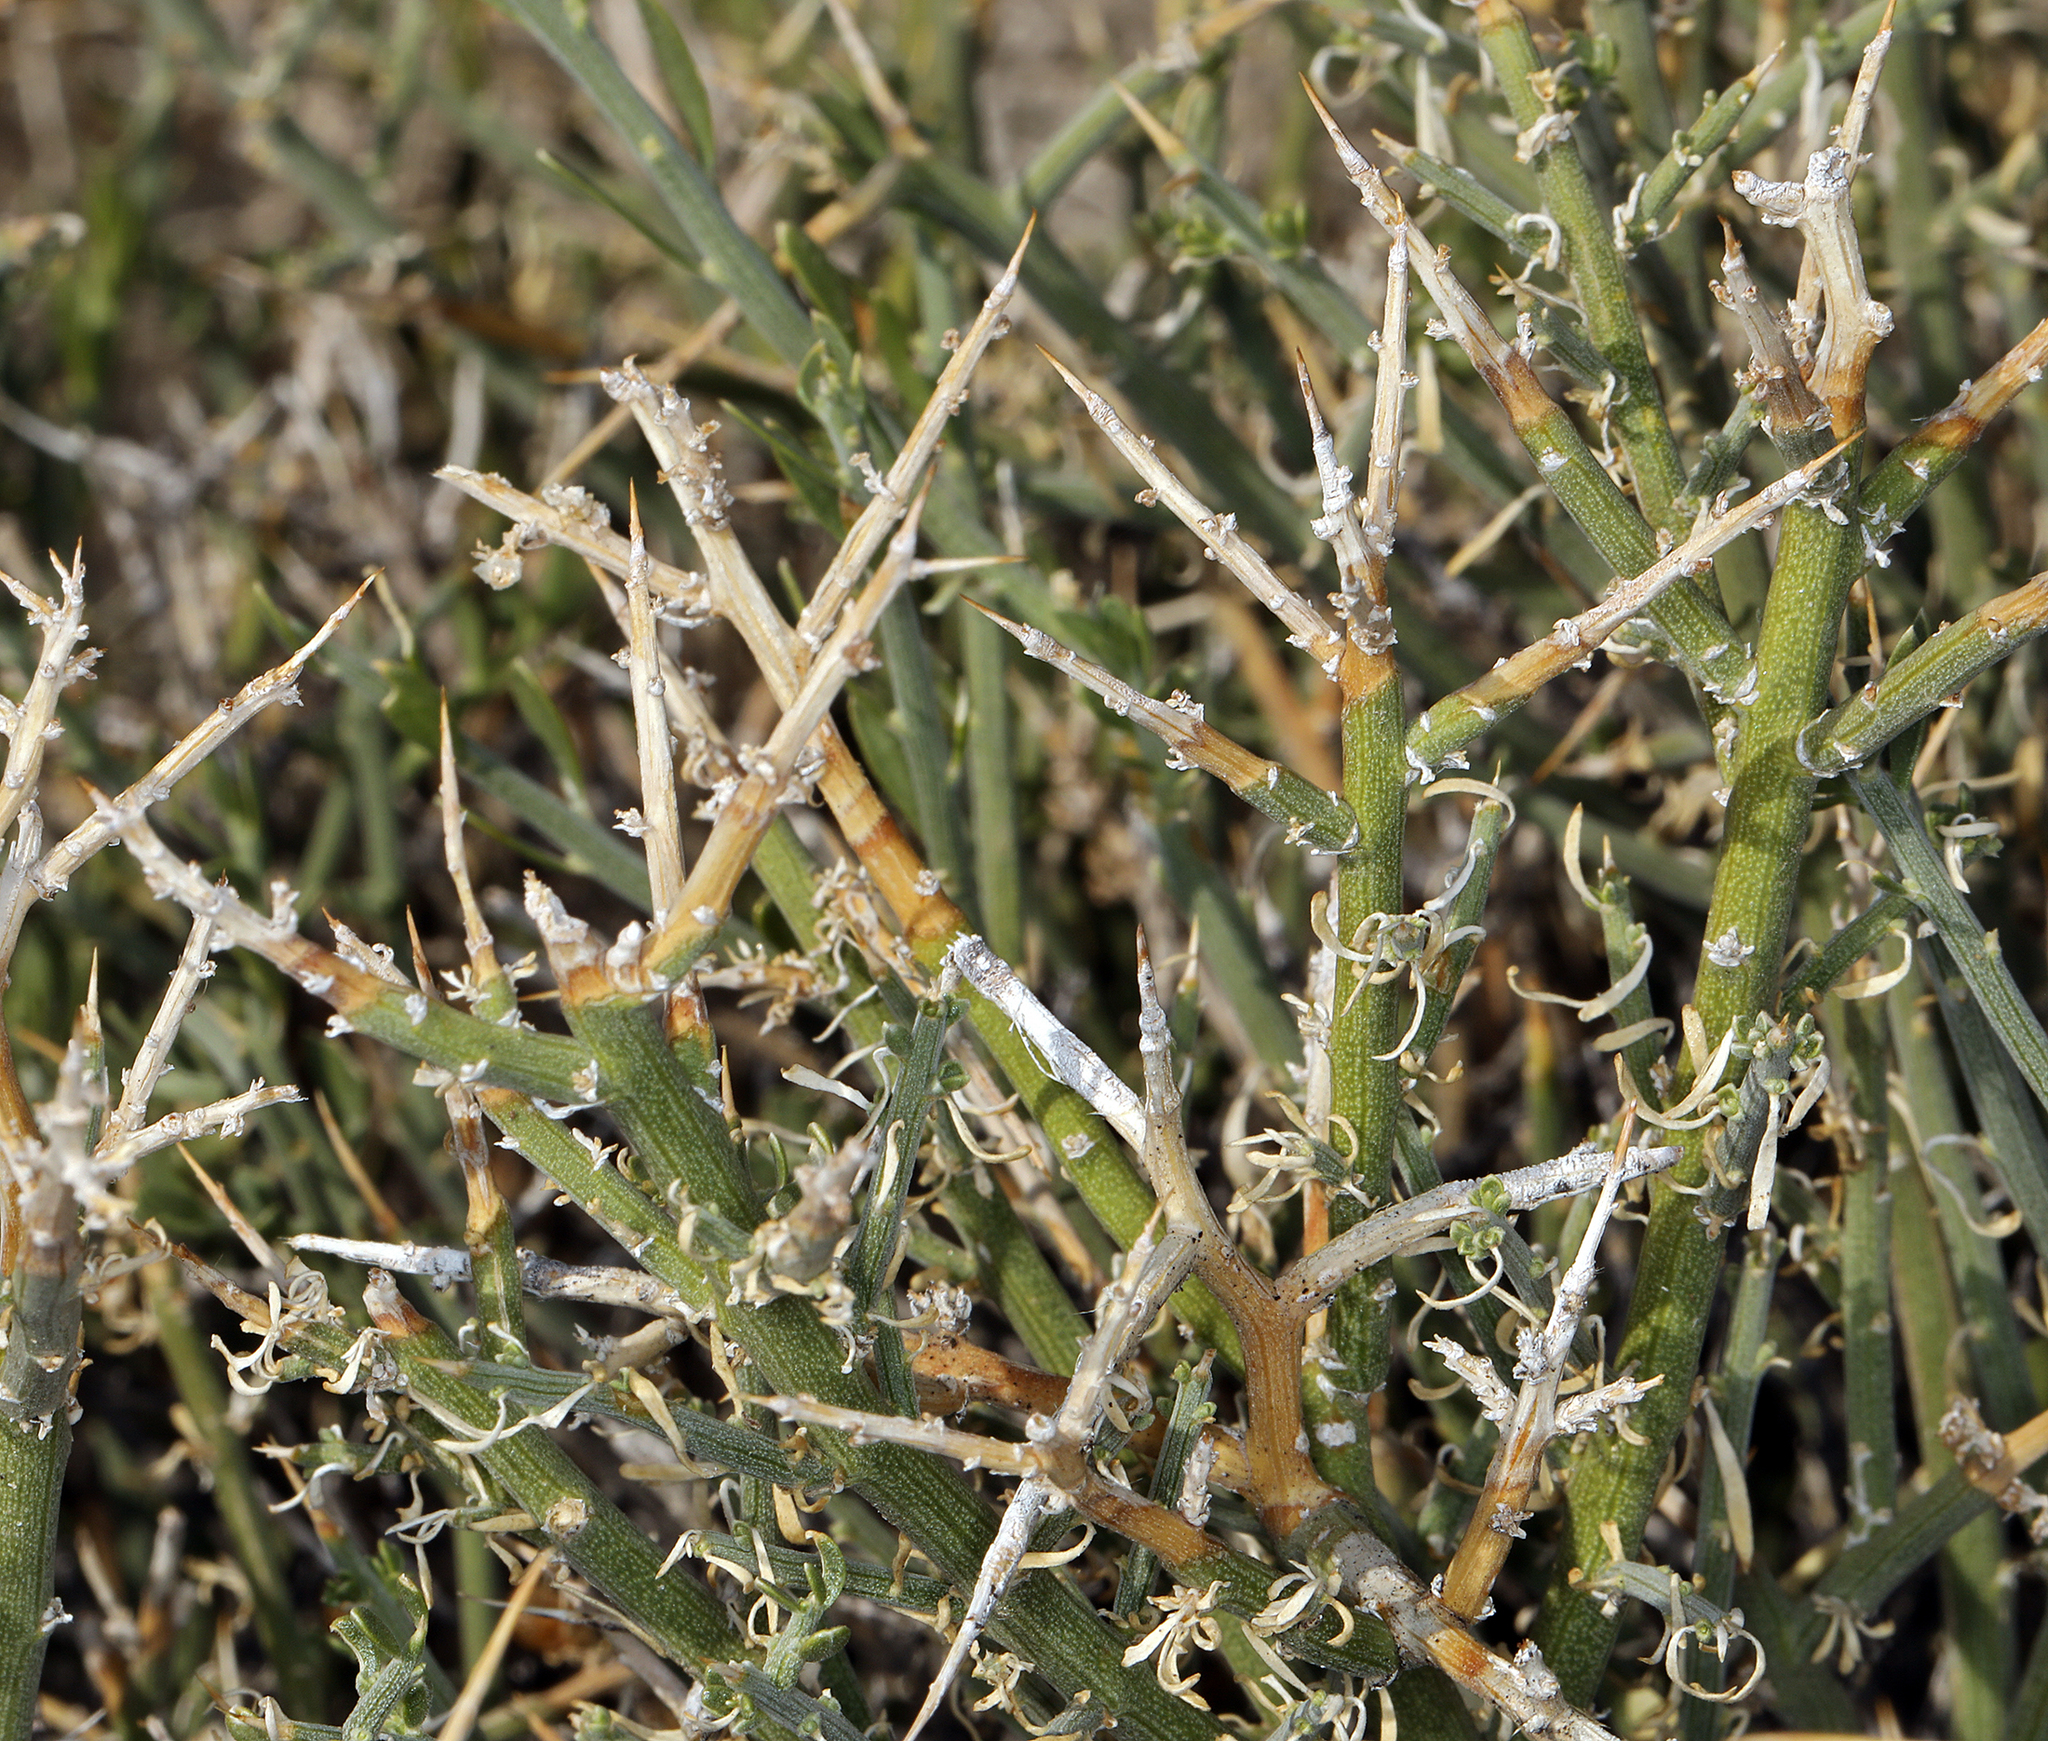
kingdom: Plantae
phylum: Tracheophyta
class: Magnoliopsida
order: Lamiales
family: Oleaceae
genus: Menodora
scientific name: Menodora spinescens
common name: Spiny menodora
